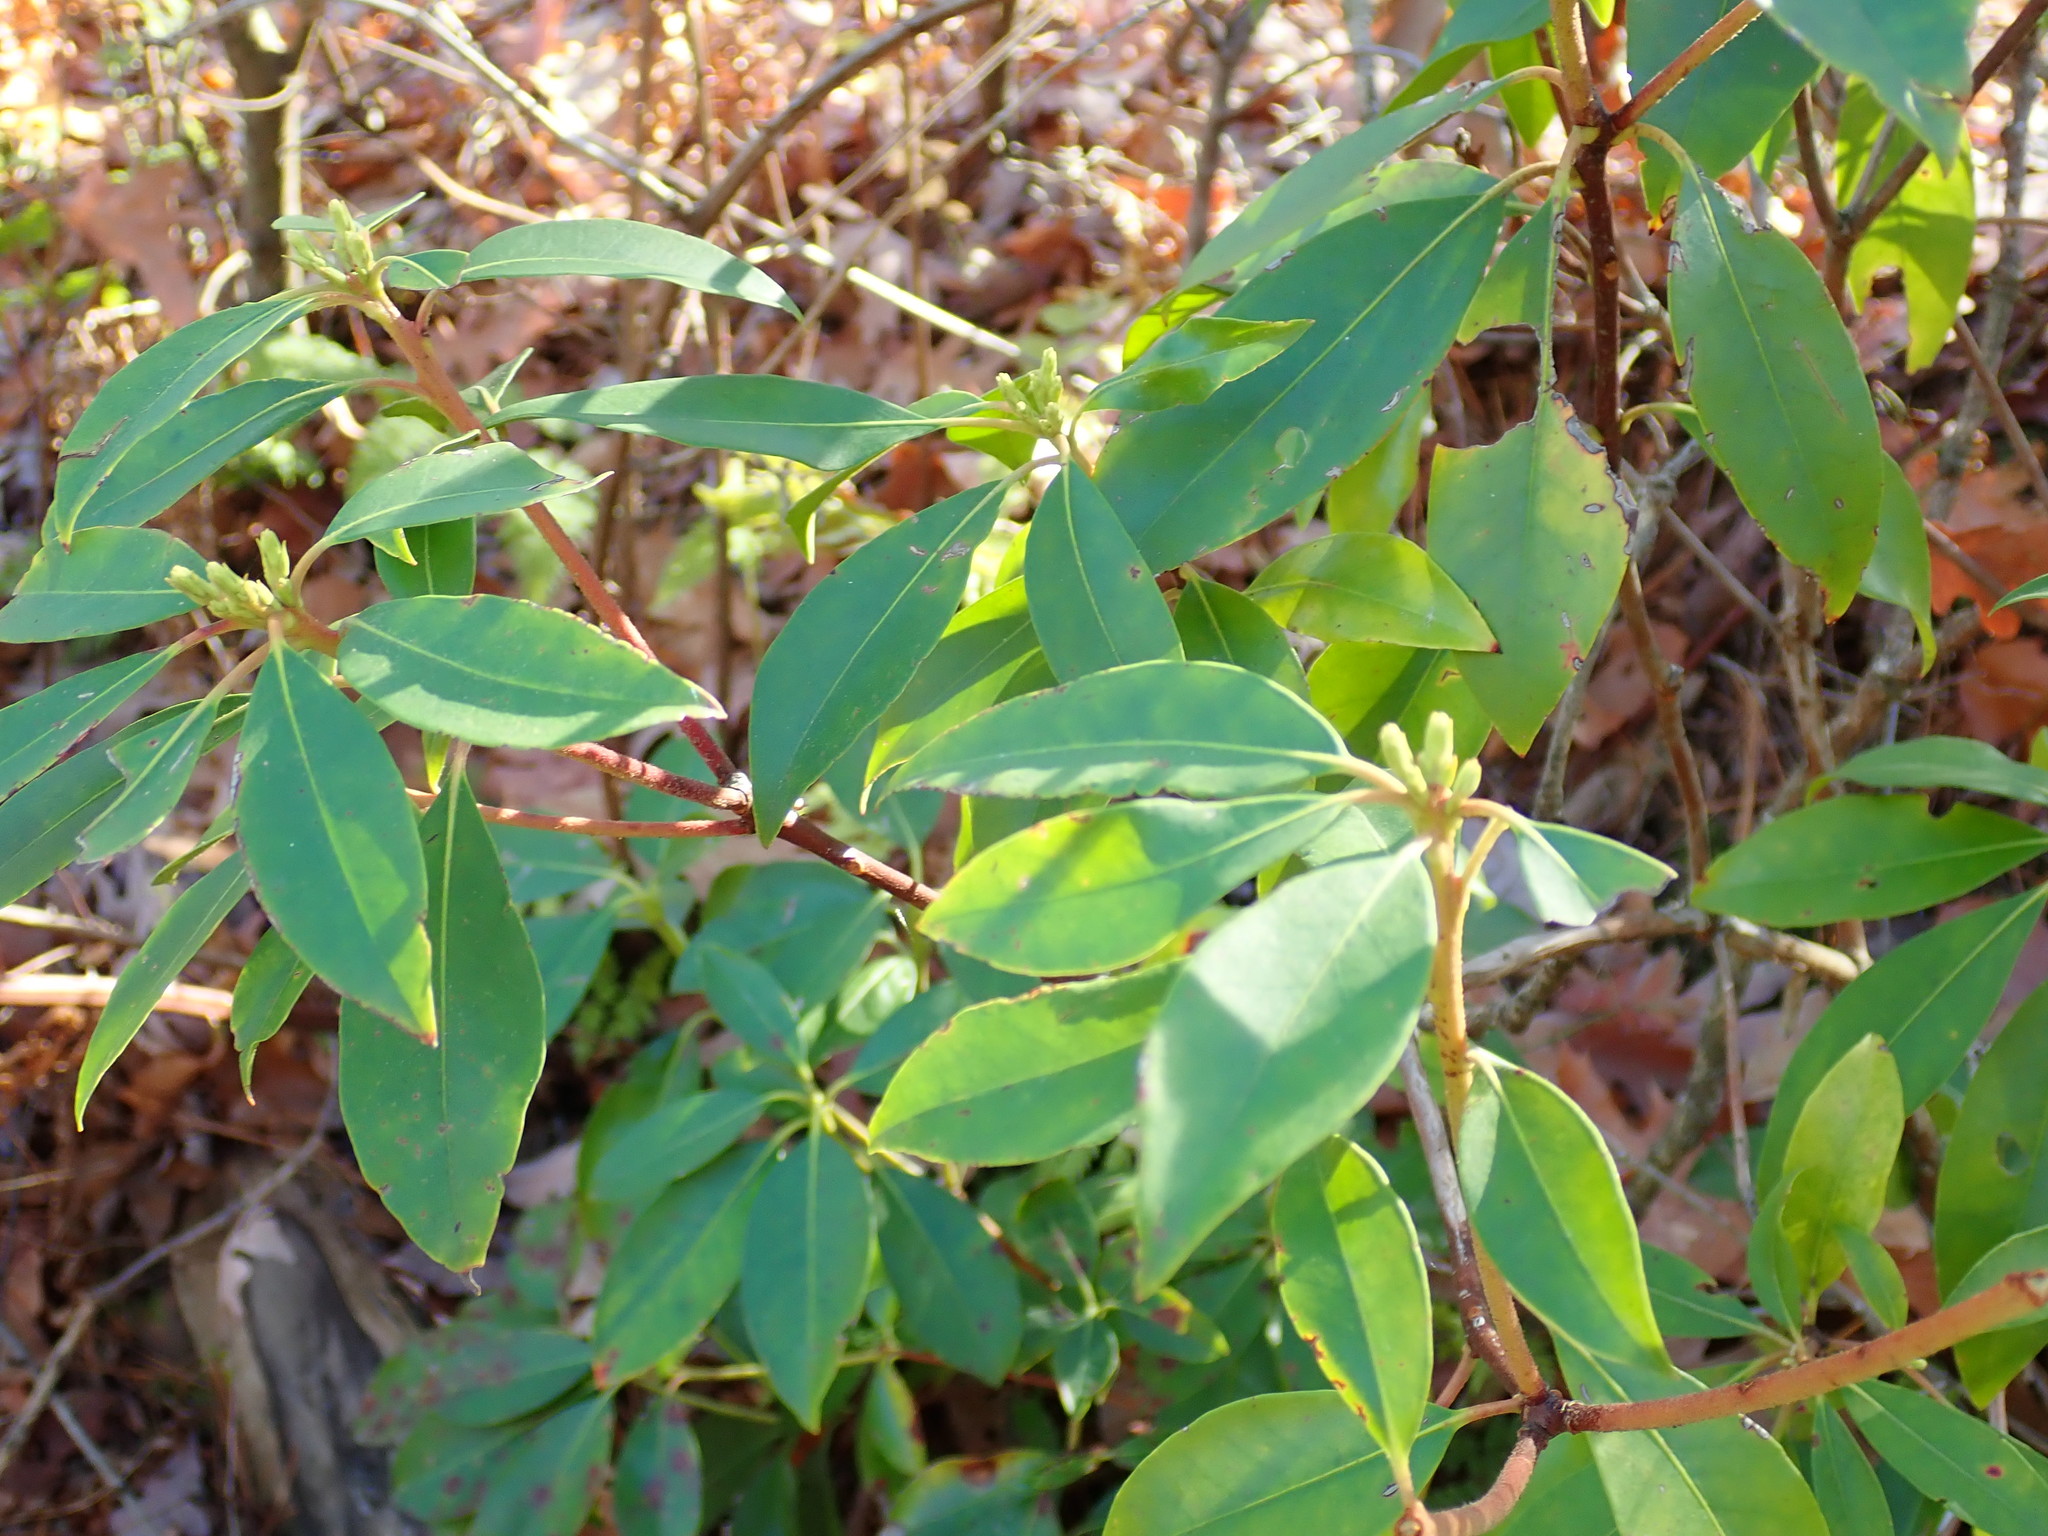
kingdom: Plantae
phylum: Tracheophyta
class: Magnoliopsida
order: Ericales
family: Ericaceae
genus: Kalmia
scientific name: Kalmia latifolia
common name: Mountain-laurel
